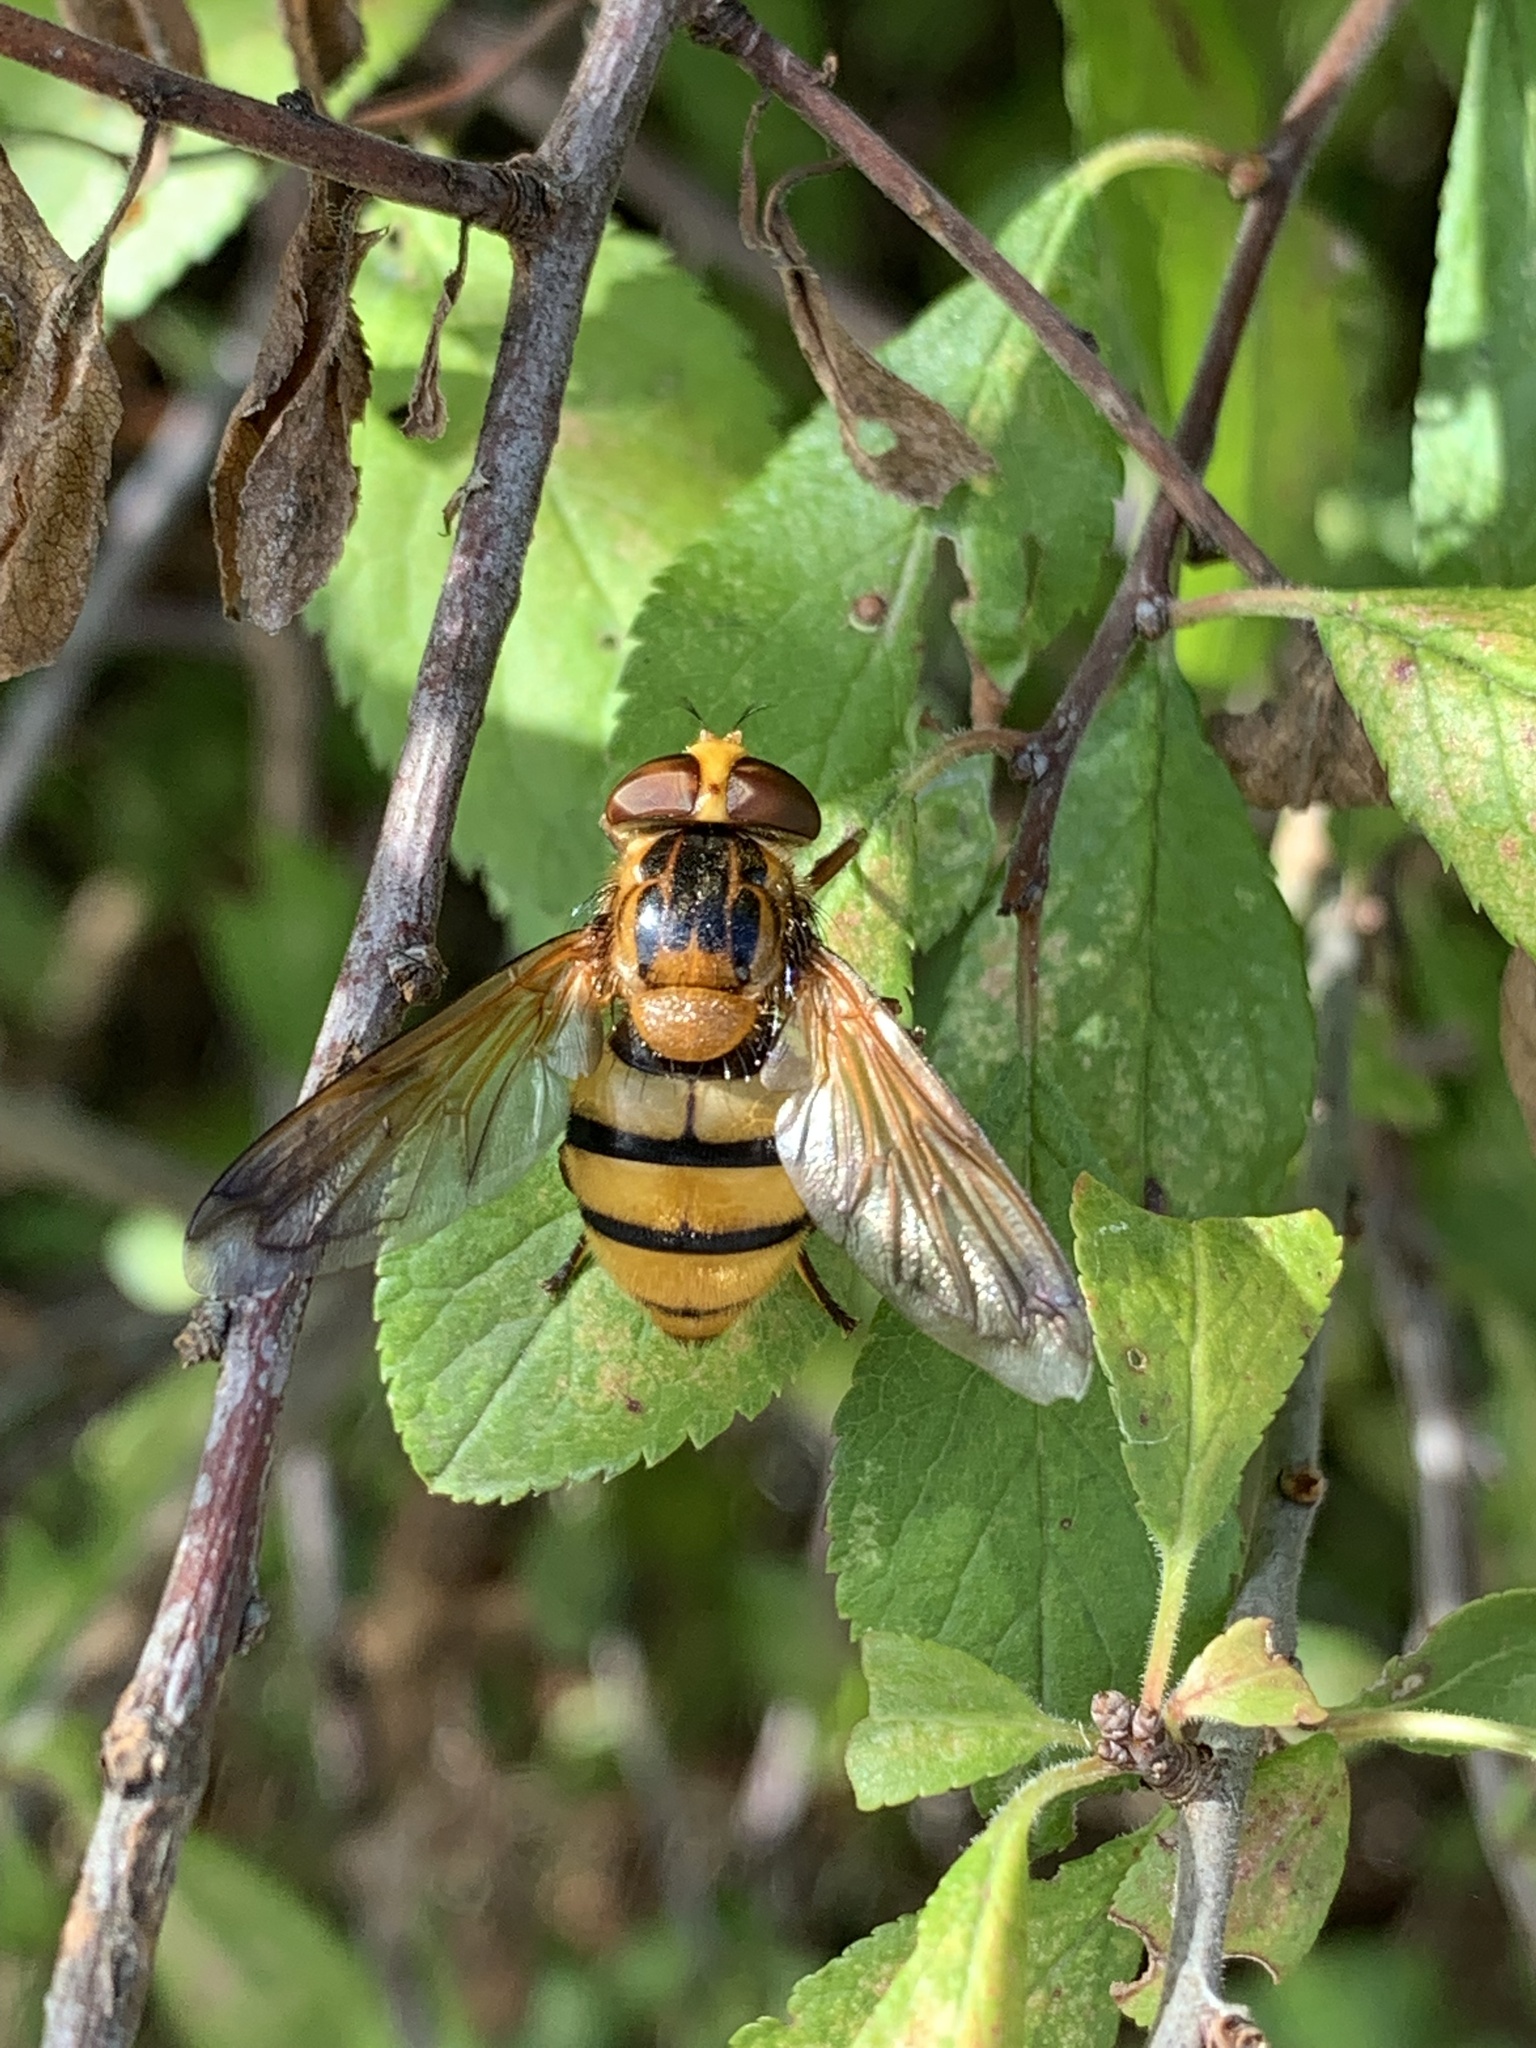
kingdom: Animalia
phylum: Arthropoda
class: Insecta
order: Diptera
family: Syrphidae
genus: Volucella
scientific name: Volucella inanis
